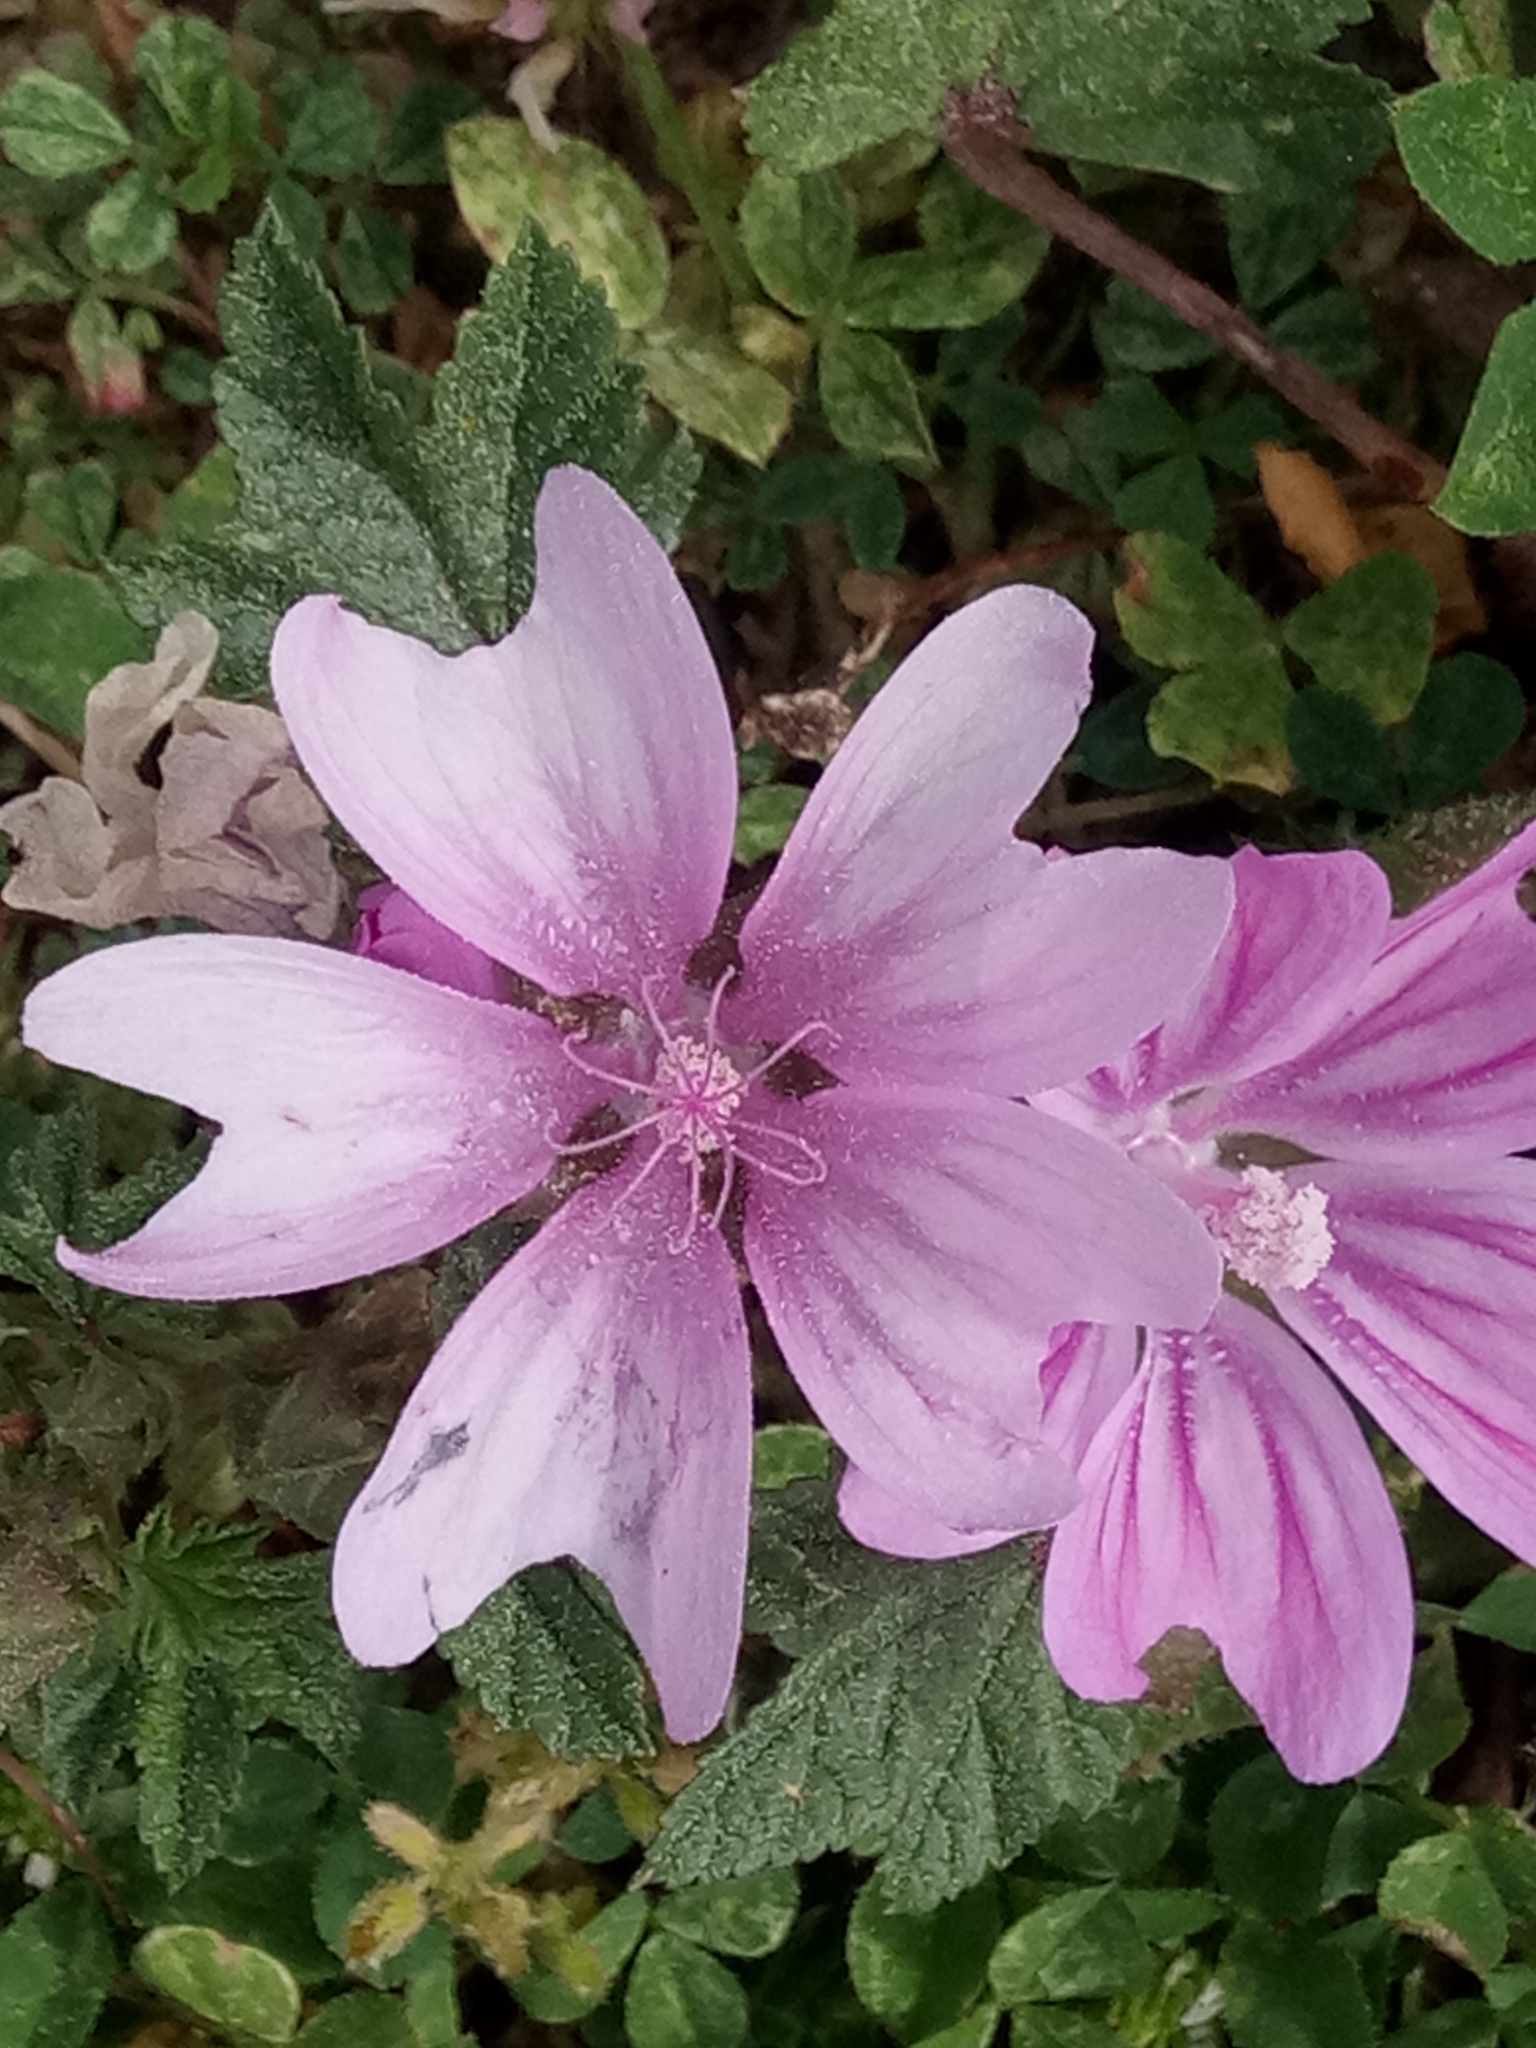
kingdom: Plantae
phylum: Tracheophyta
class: Magnoliopsida
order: Malvales
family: Malvaceae
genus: Malva
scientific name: Malva sylvestris
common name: Common mallow
